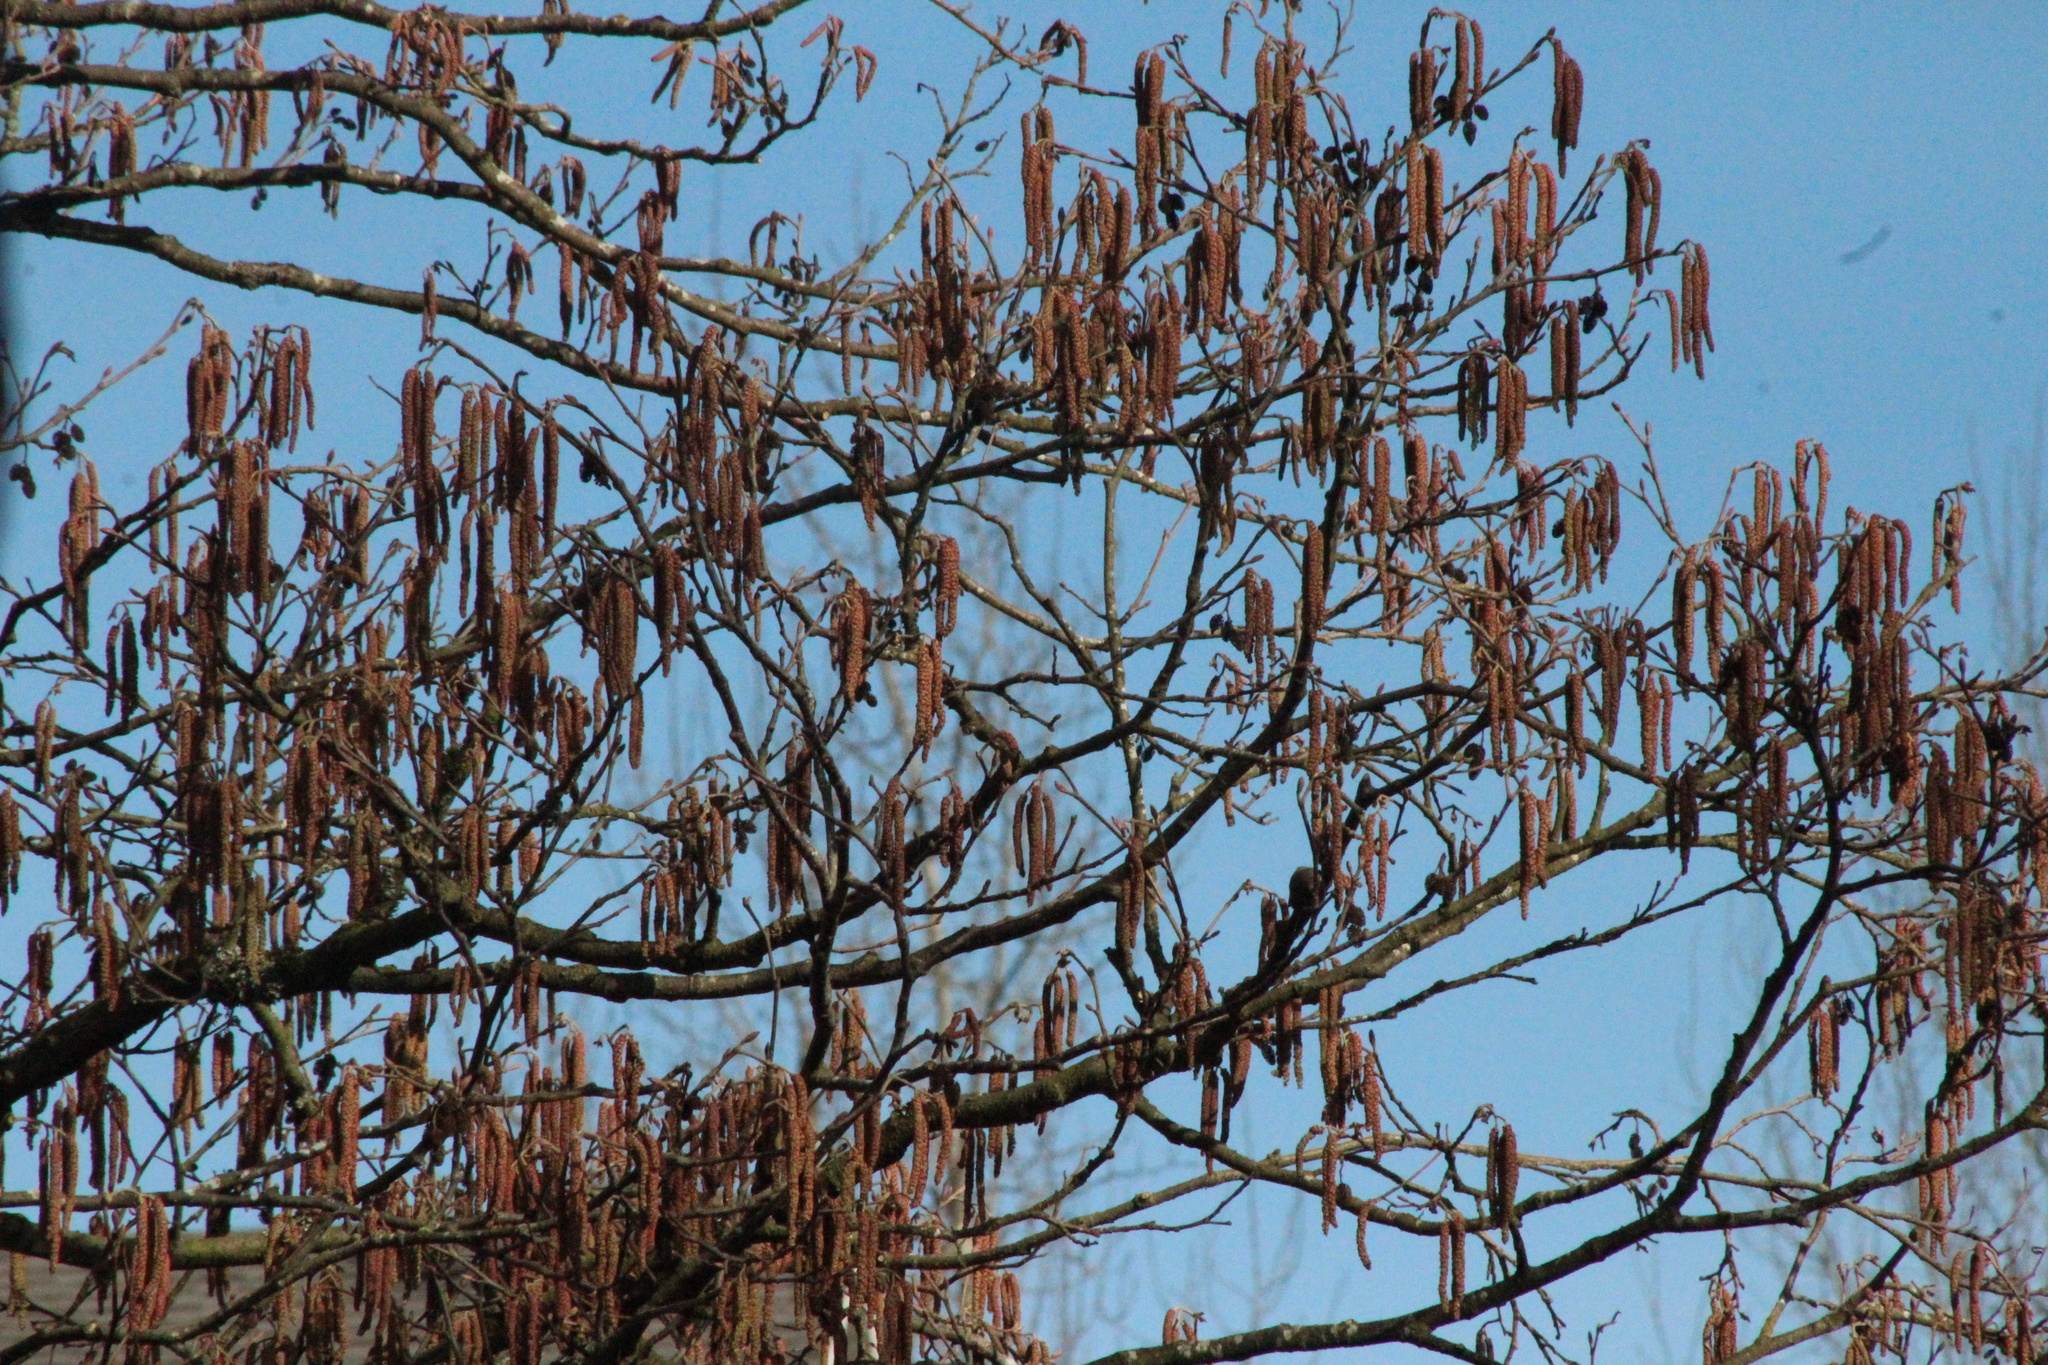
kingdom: Plantae
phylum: Tracheophyta
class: Magnoliopsida
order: Fagales
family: Betulaceae
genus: Alnus
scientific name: Alnus rubra
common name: Red alder
